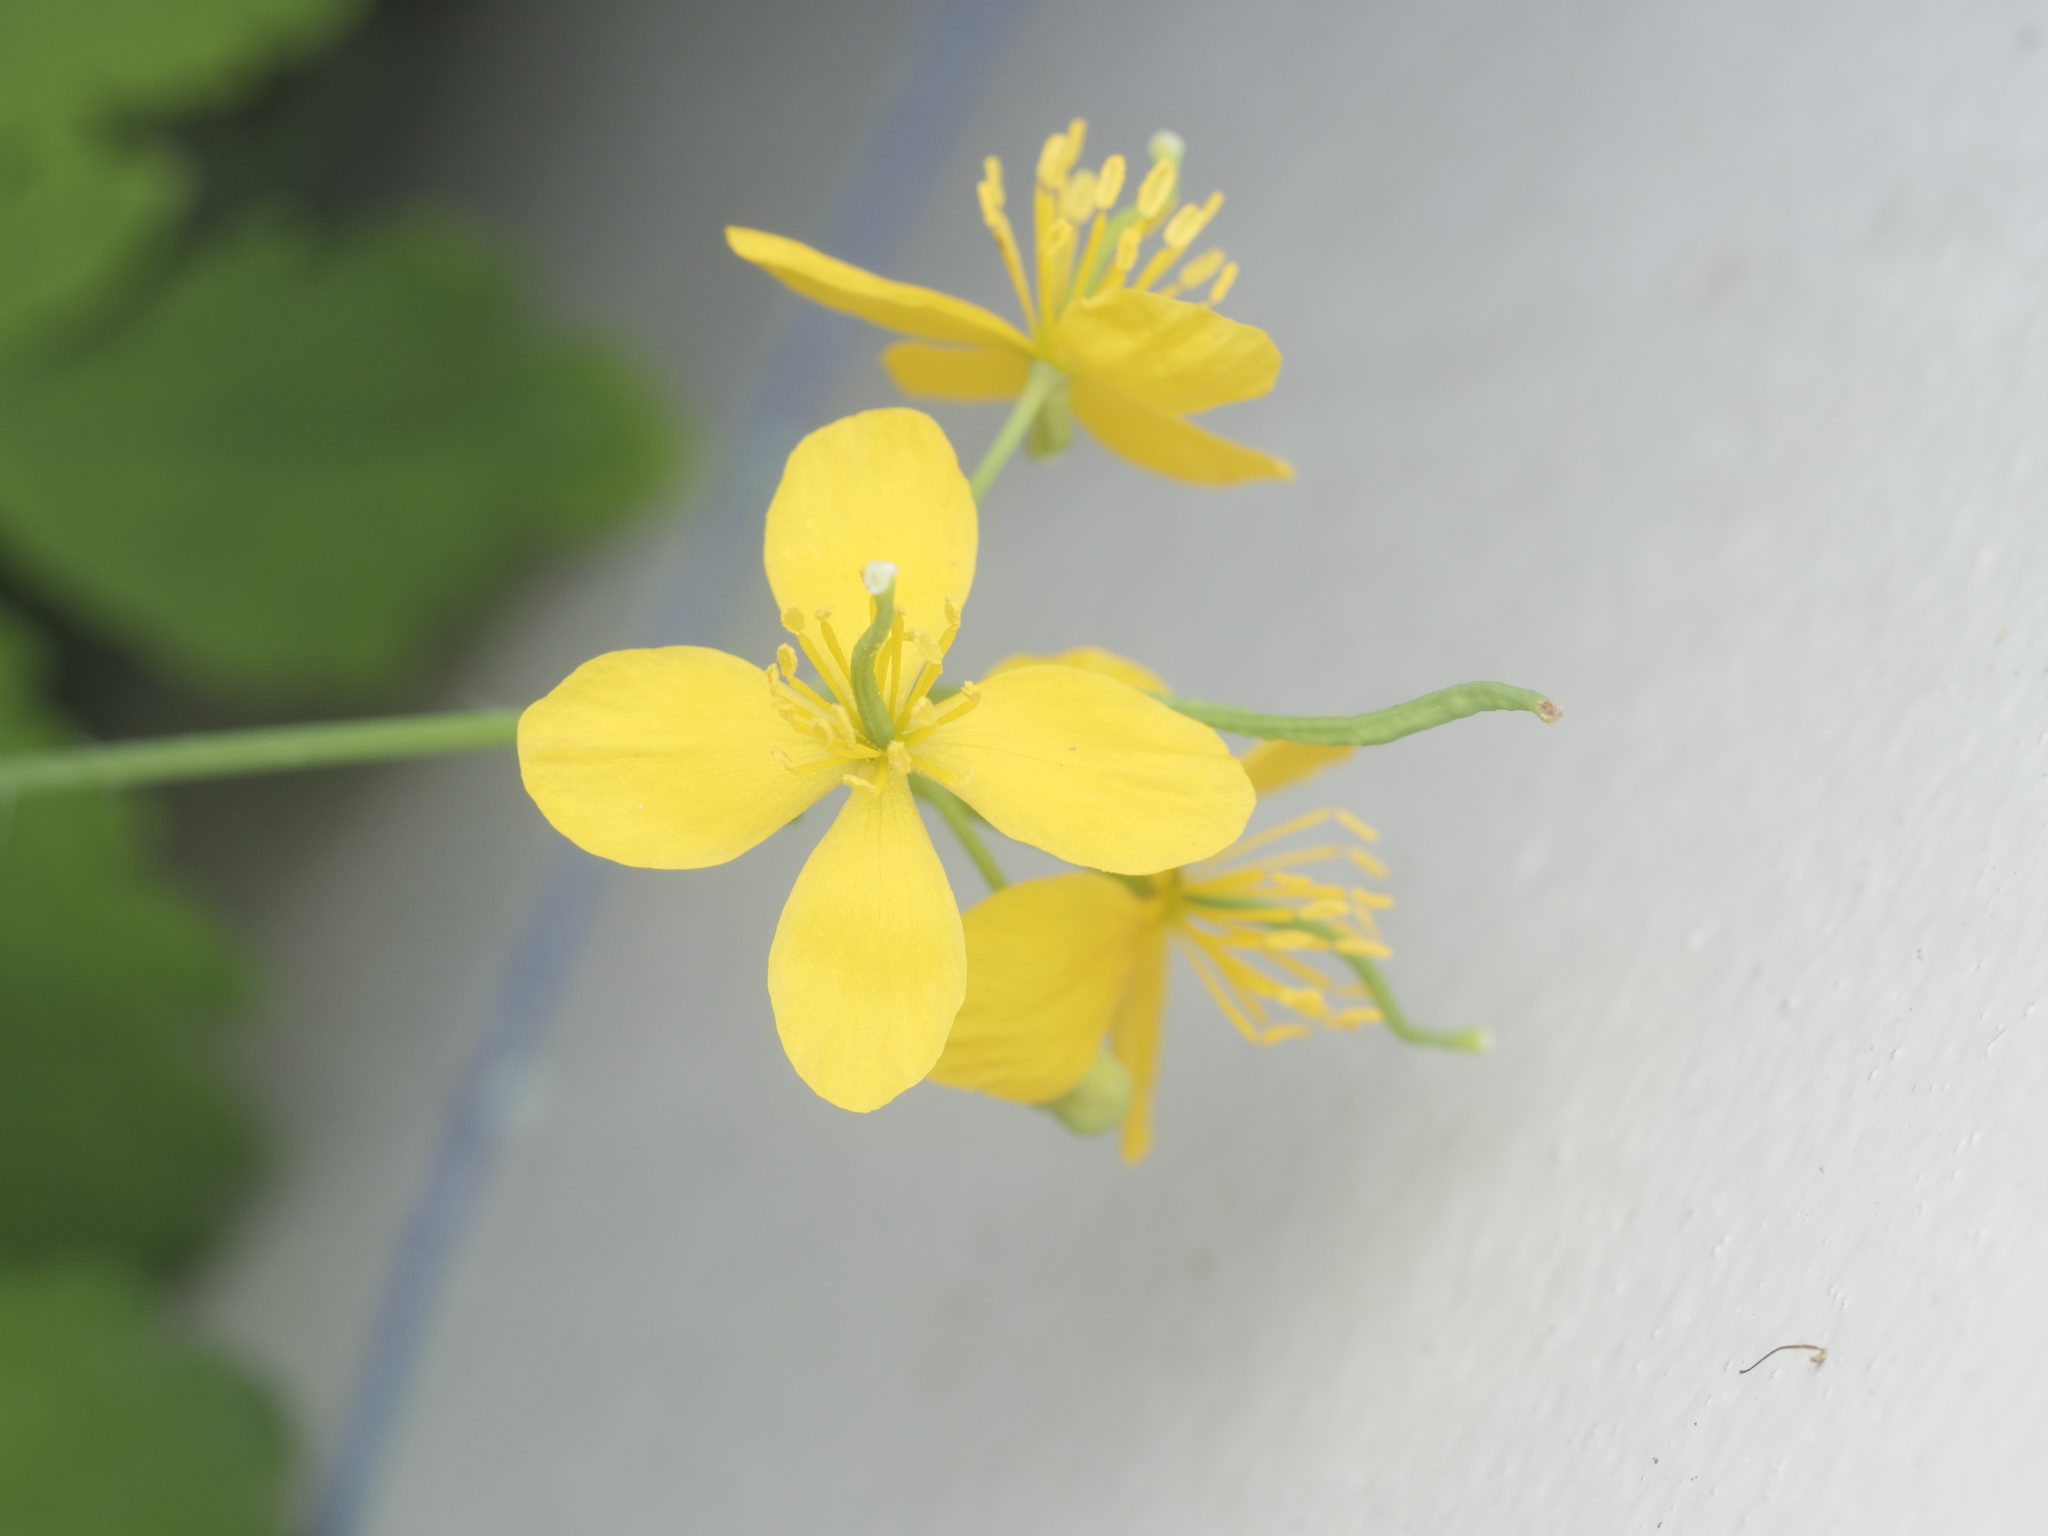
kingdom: Plantae
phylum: Tracheophyta
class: Magnoliopsida
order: Ranunculales
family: Papaveraceae
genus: Chelidonium
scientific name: Chelidonium majus
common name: Greater celandine
